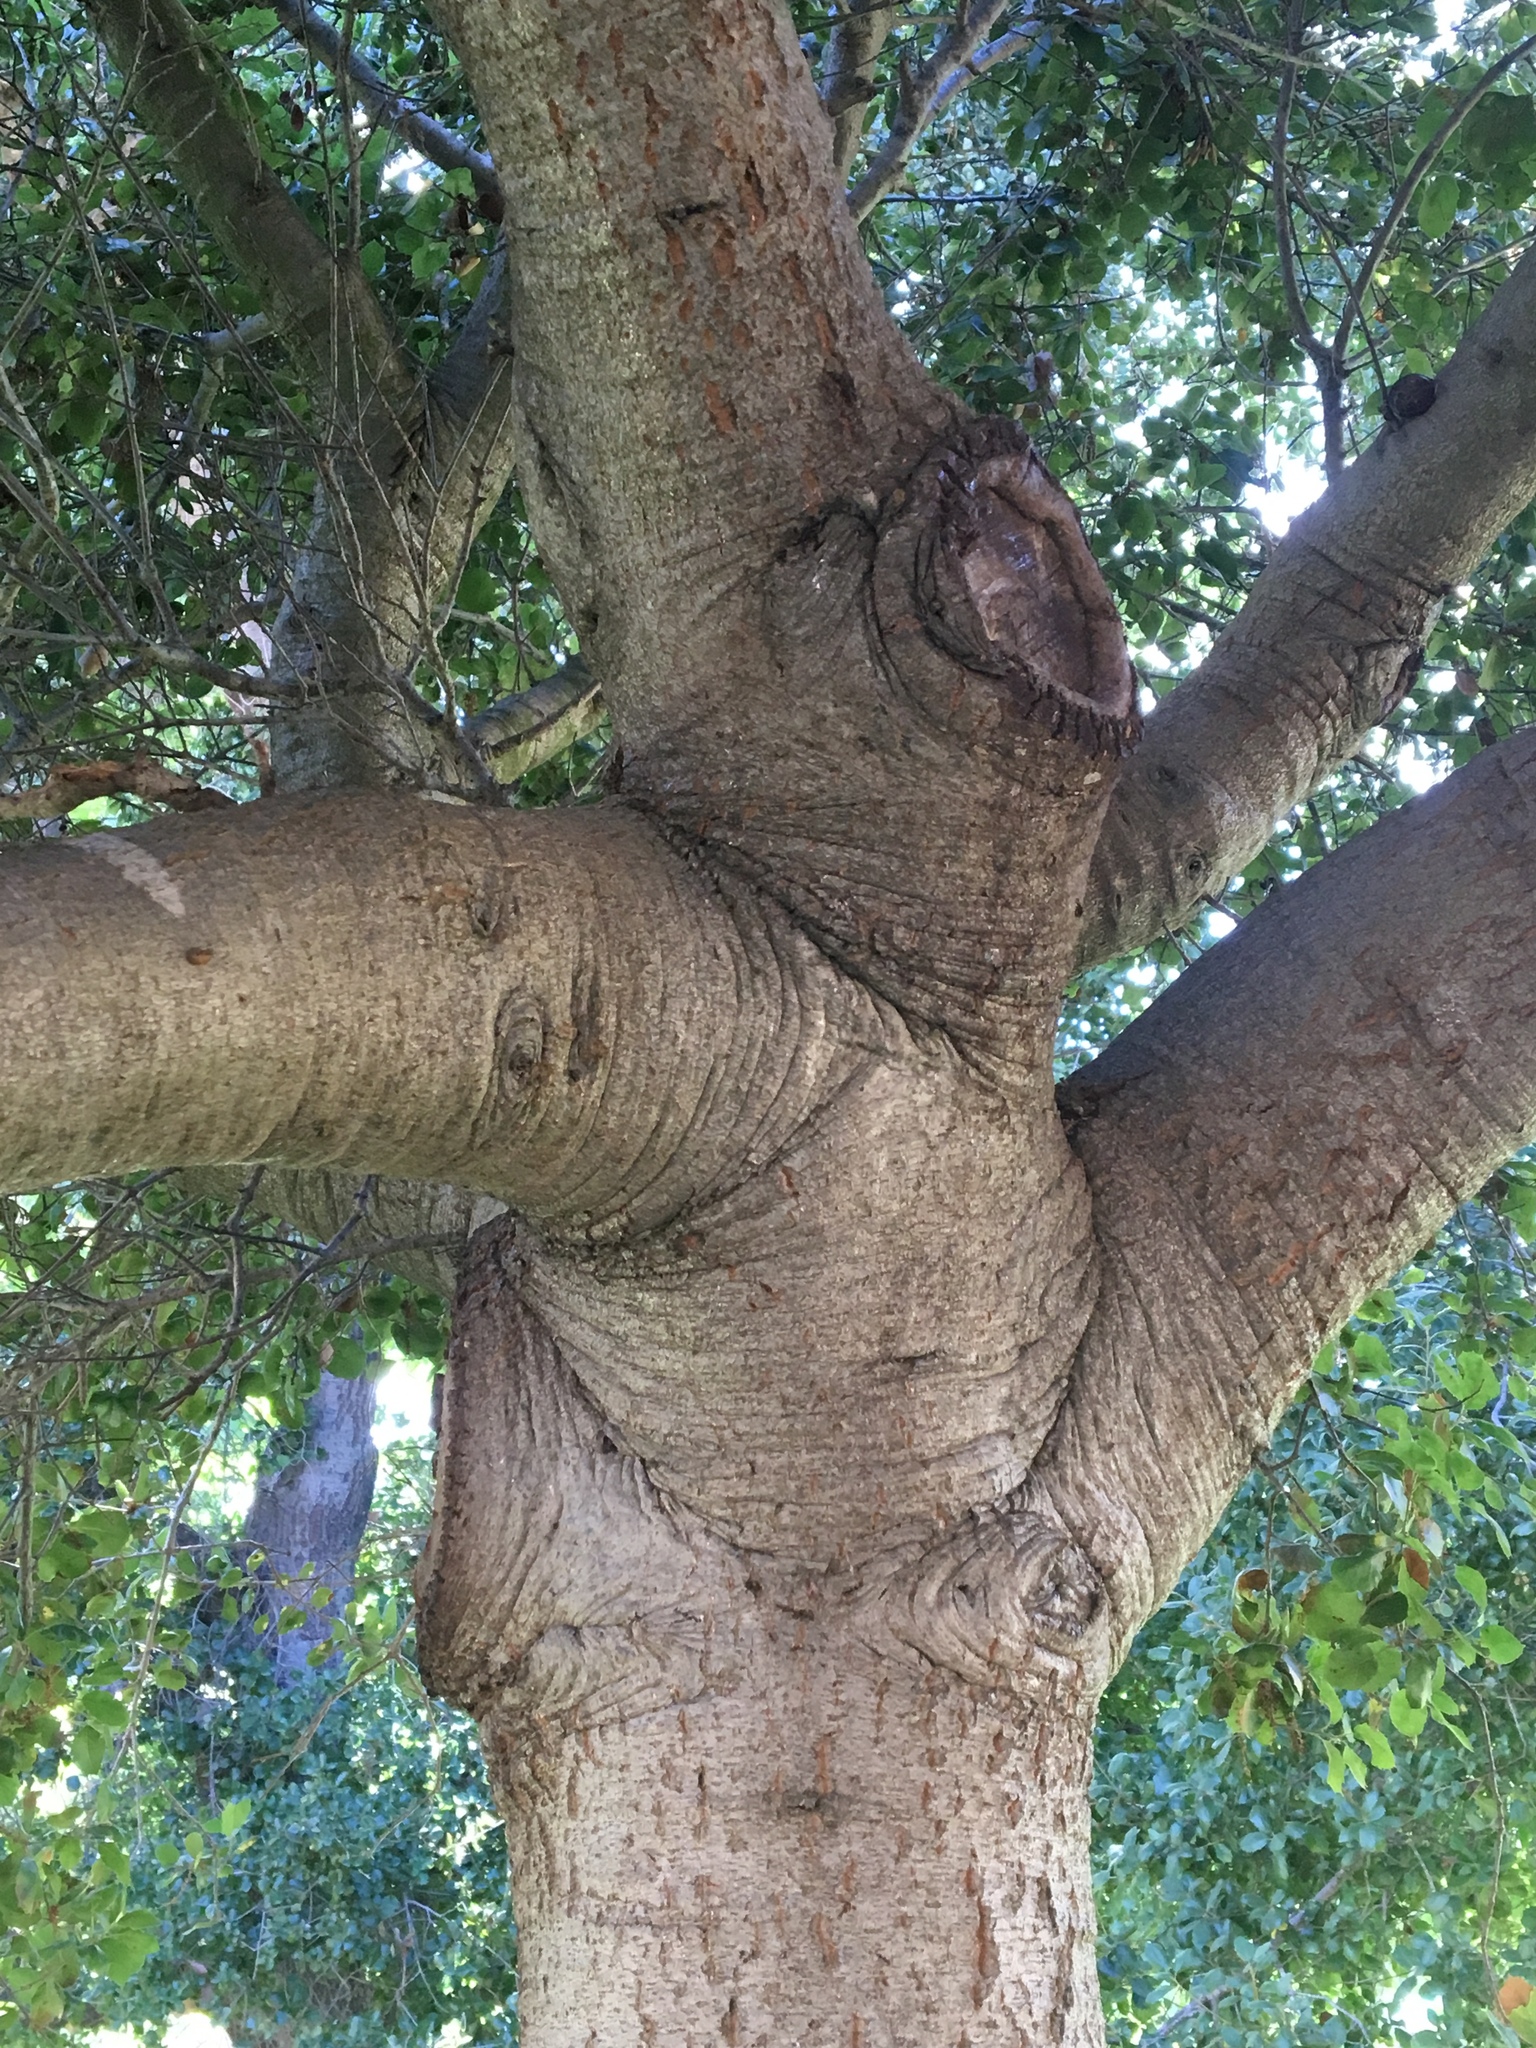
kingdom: Plantae
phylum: Tracheophyta
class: Magnoliopsida
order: Fagales
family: Fagaceae
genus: Quercus
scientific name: Quercus agrifolia
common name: California live oak
